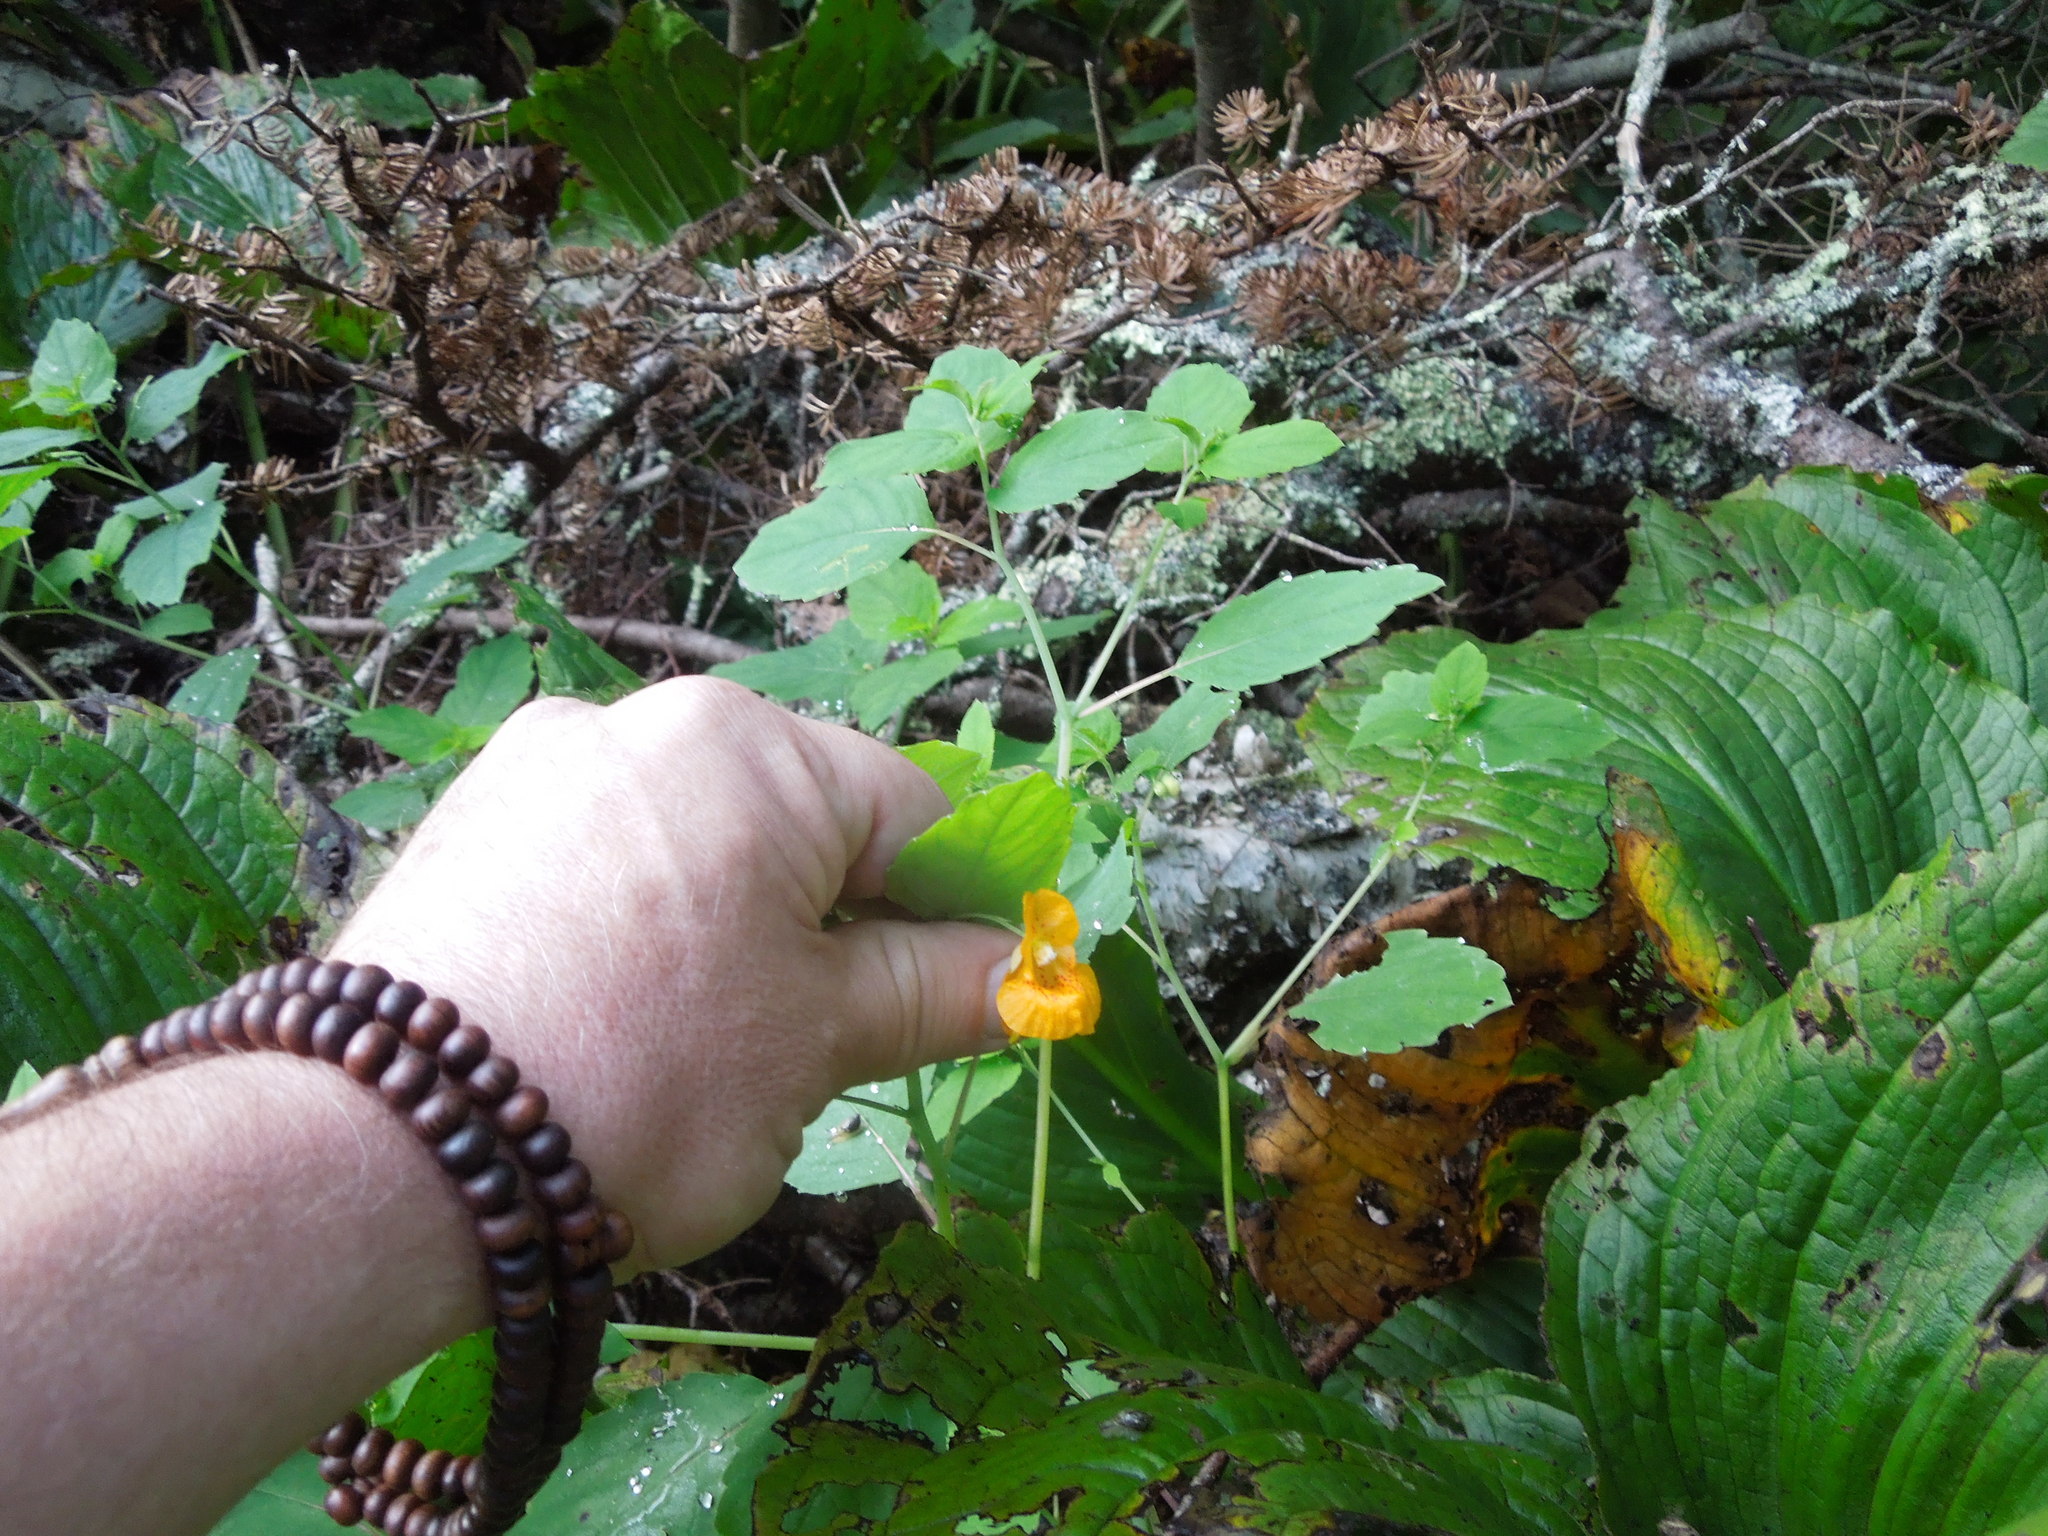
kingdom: Plantae
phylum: Tracheophyta
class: Magnoliopsida
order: Ericales
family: Balsaminaceae
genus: Impatiens
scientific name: Impatiens capensis
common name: Orange balsam
